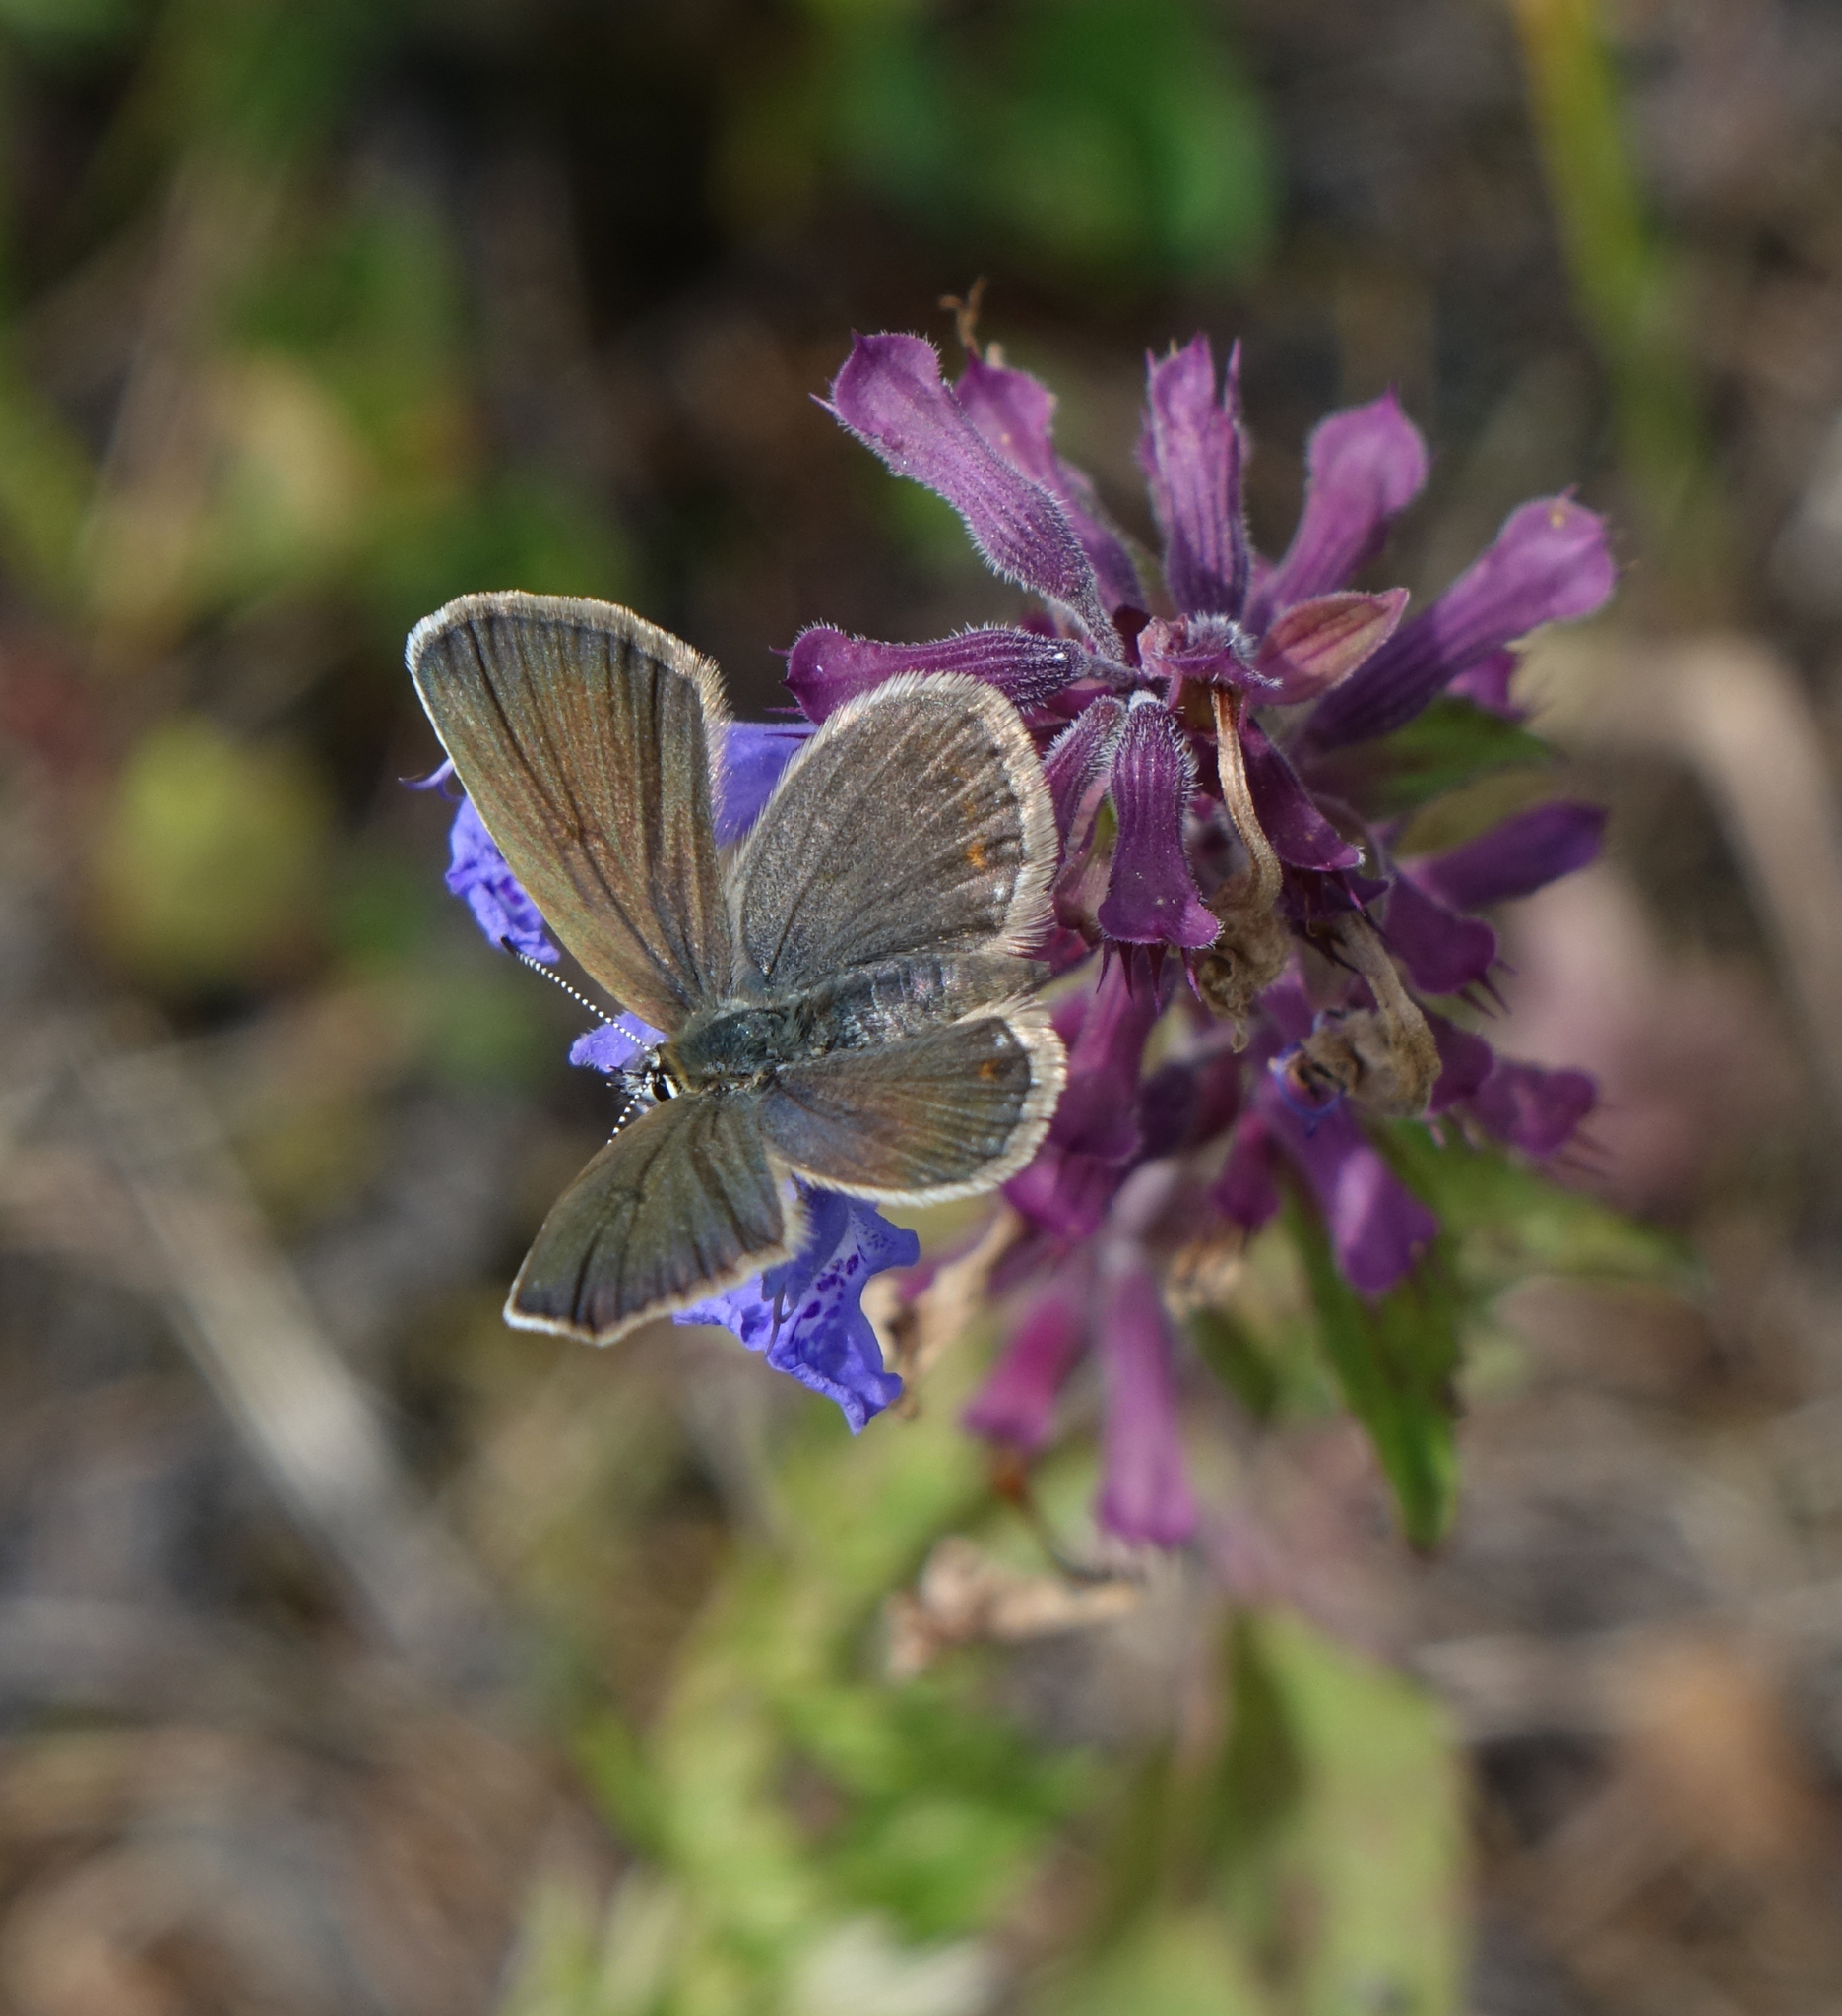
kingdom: Animalia
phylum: Arthropoda
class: Insecta
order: Lepidoptera
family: Lycaenidae
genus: Plebejus
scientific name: Plebejus argus
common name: Silver-studded blue
